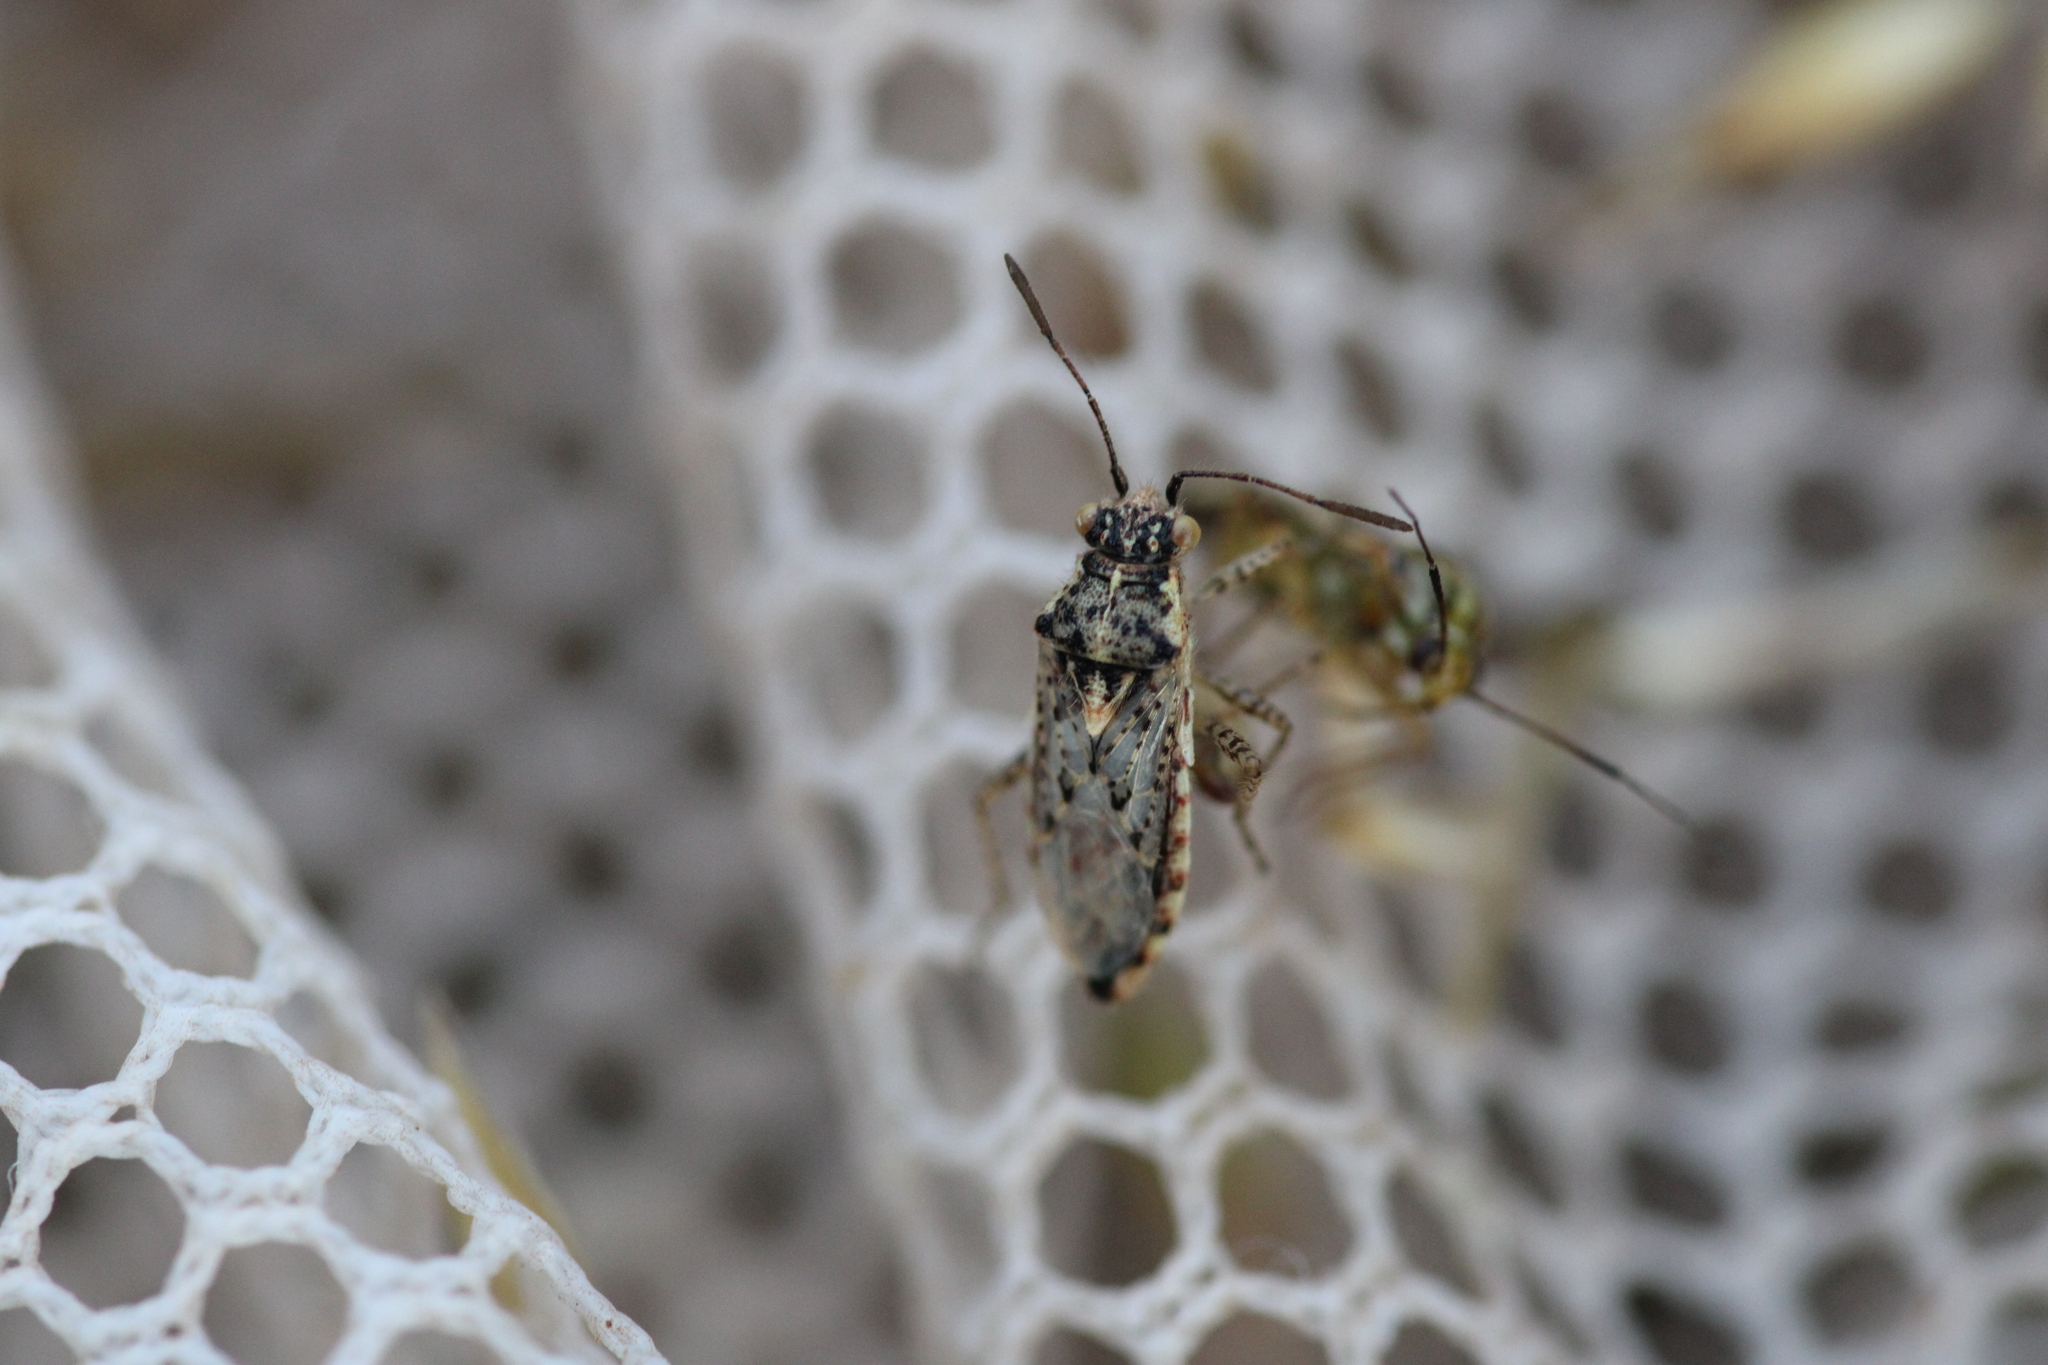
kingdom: Animalia
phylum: Arthropoda
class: Insecta
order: Hemiptera
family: Rhopalidae
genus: Brachycarenus
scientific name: Brachycarenus tigrinus
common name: Scentless plant bug
